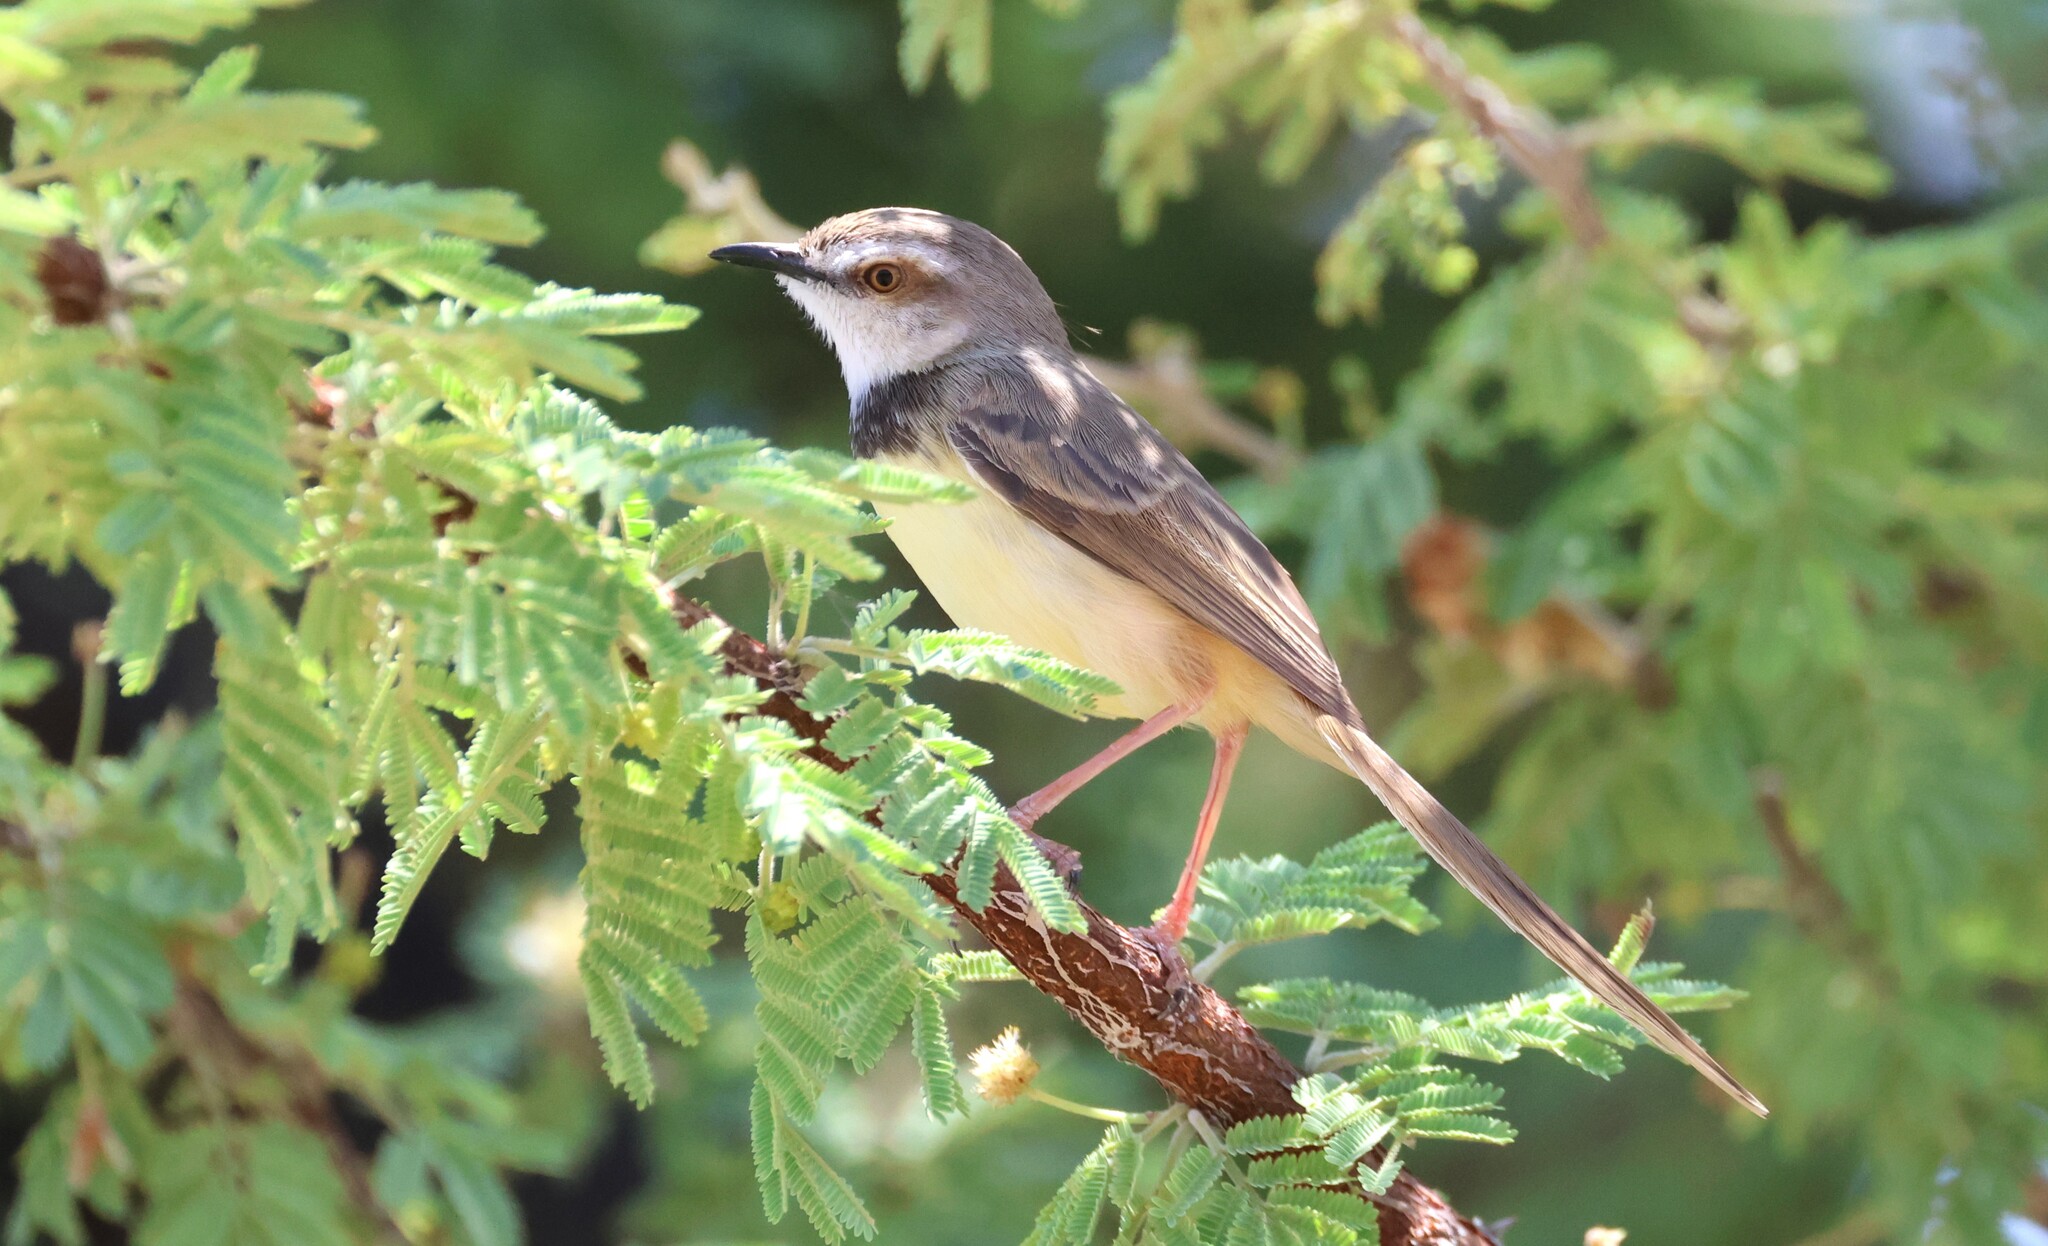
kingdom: Animalia
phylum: Chordata
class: Aves
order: Passeriformes
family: Cisticolidae
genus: Prinia
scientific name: Prinia flavicans
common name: Black-chested prinia
